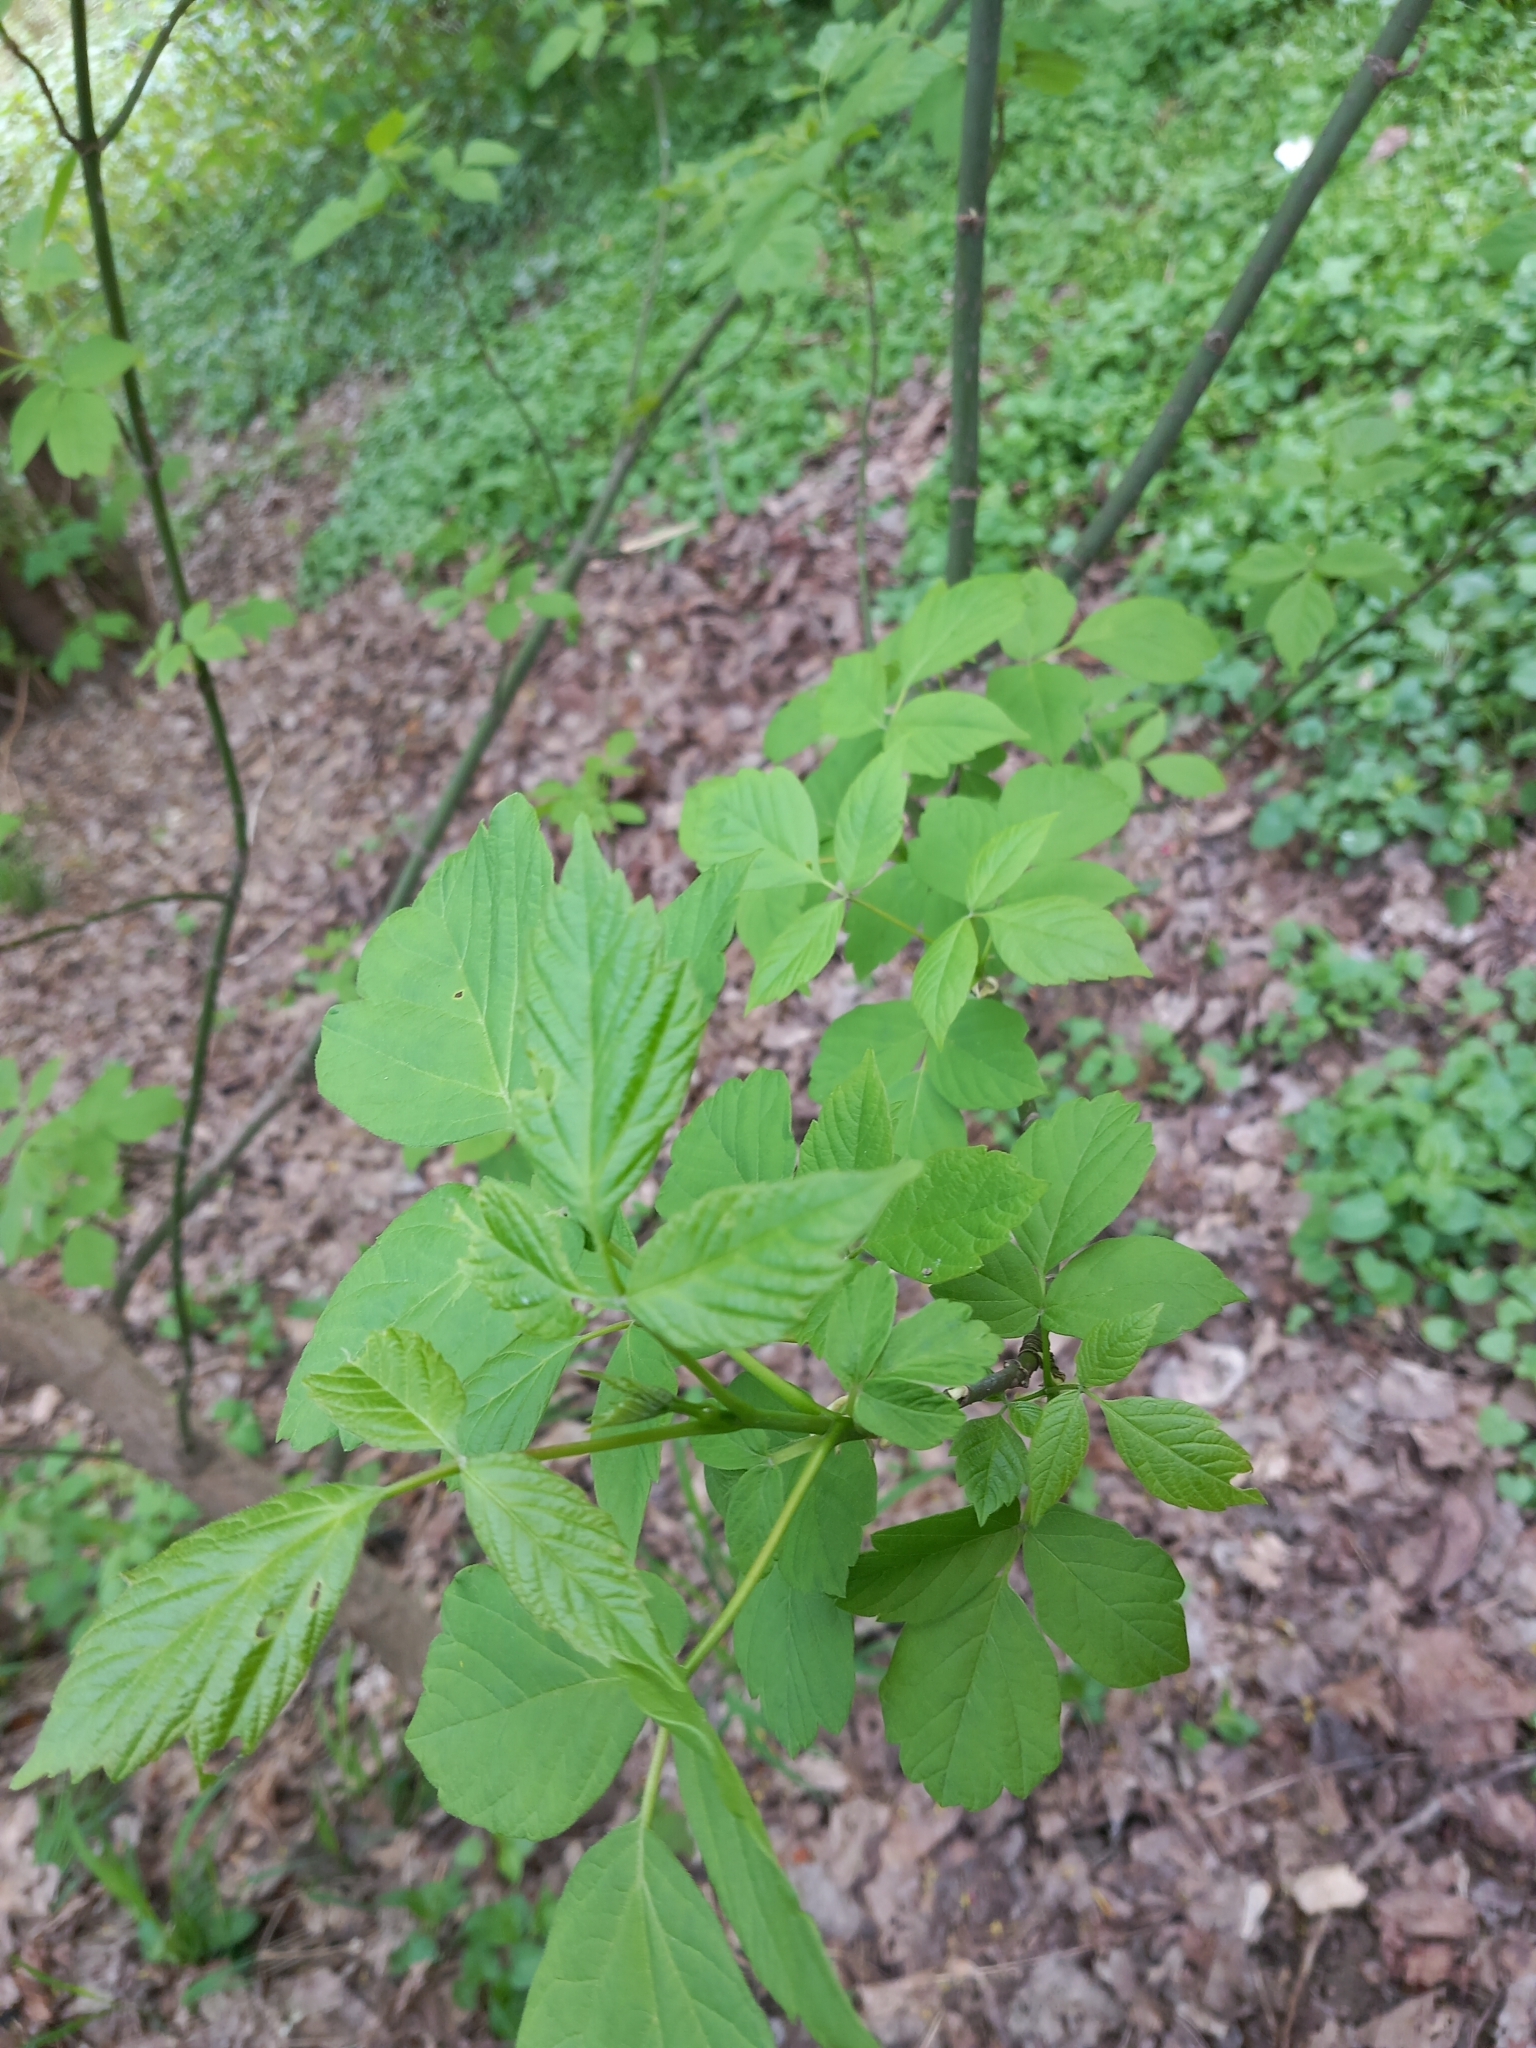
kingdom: Plantae
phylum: Tracheophyta
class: Magnoliopsida
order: Sapindales
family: Sapindaceae
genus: Acer
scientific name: Acer negundo
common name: Ashleaf maple
